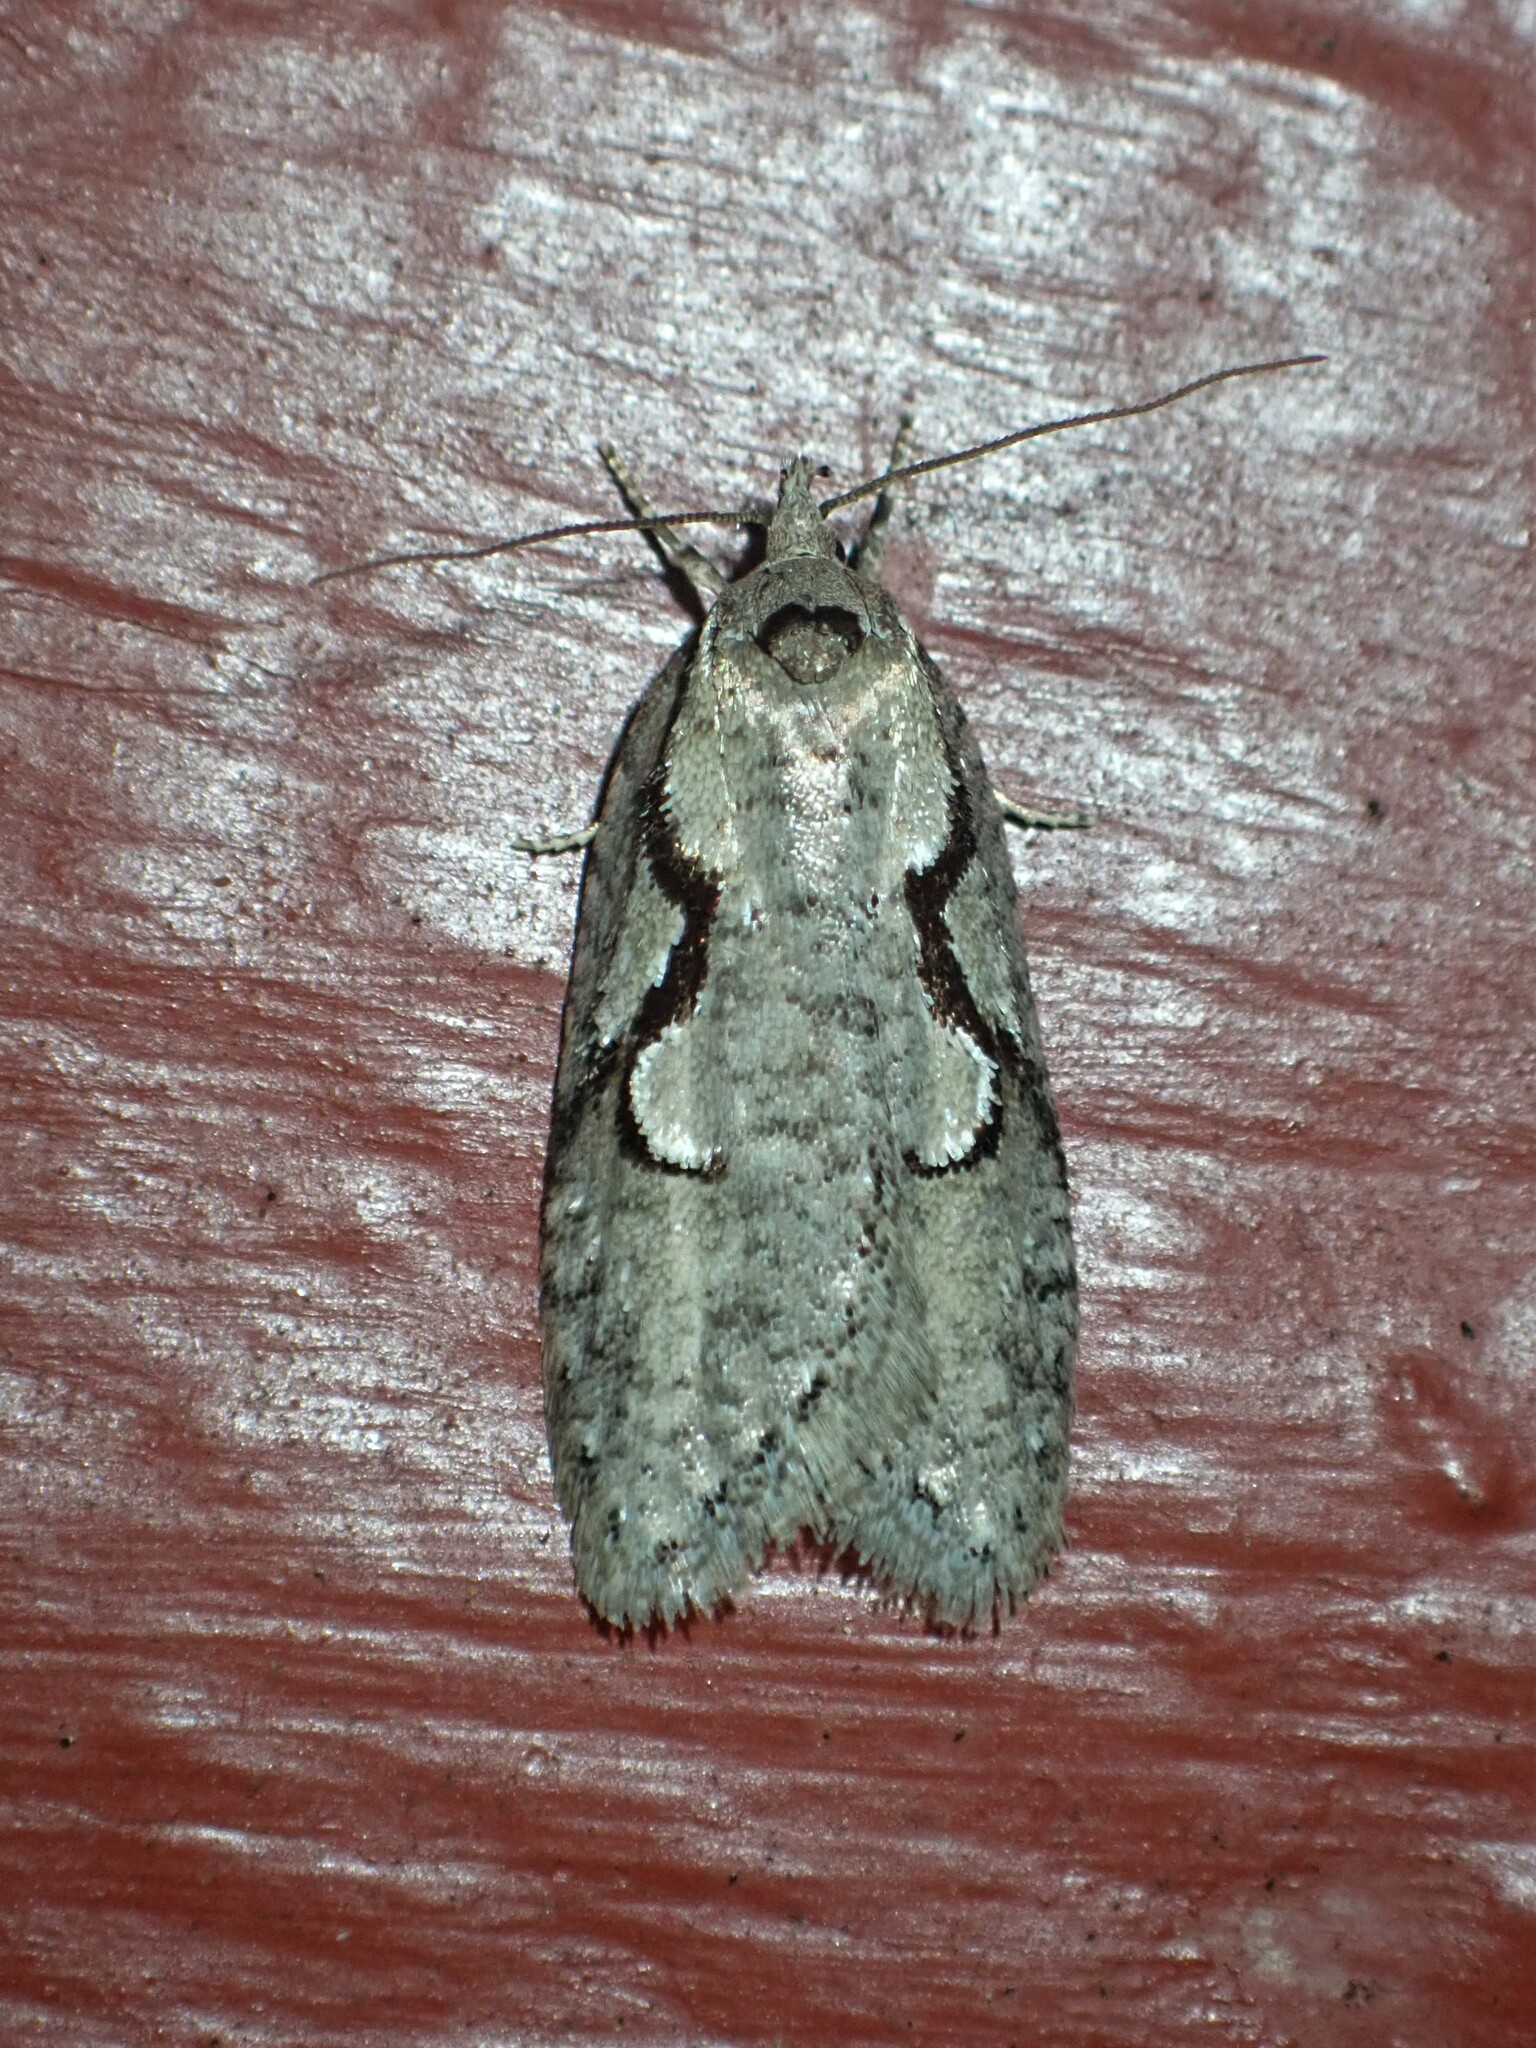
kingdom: Animalia
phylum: Arthropoda
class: Insecta
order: Lepidoptera
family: Depressariidae
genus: Semioscopis
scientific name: Semioscopis packardella
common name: Packard's concealer moth
